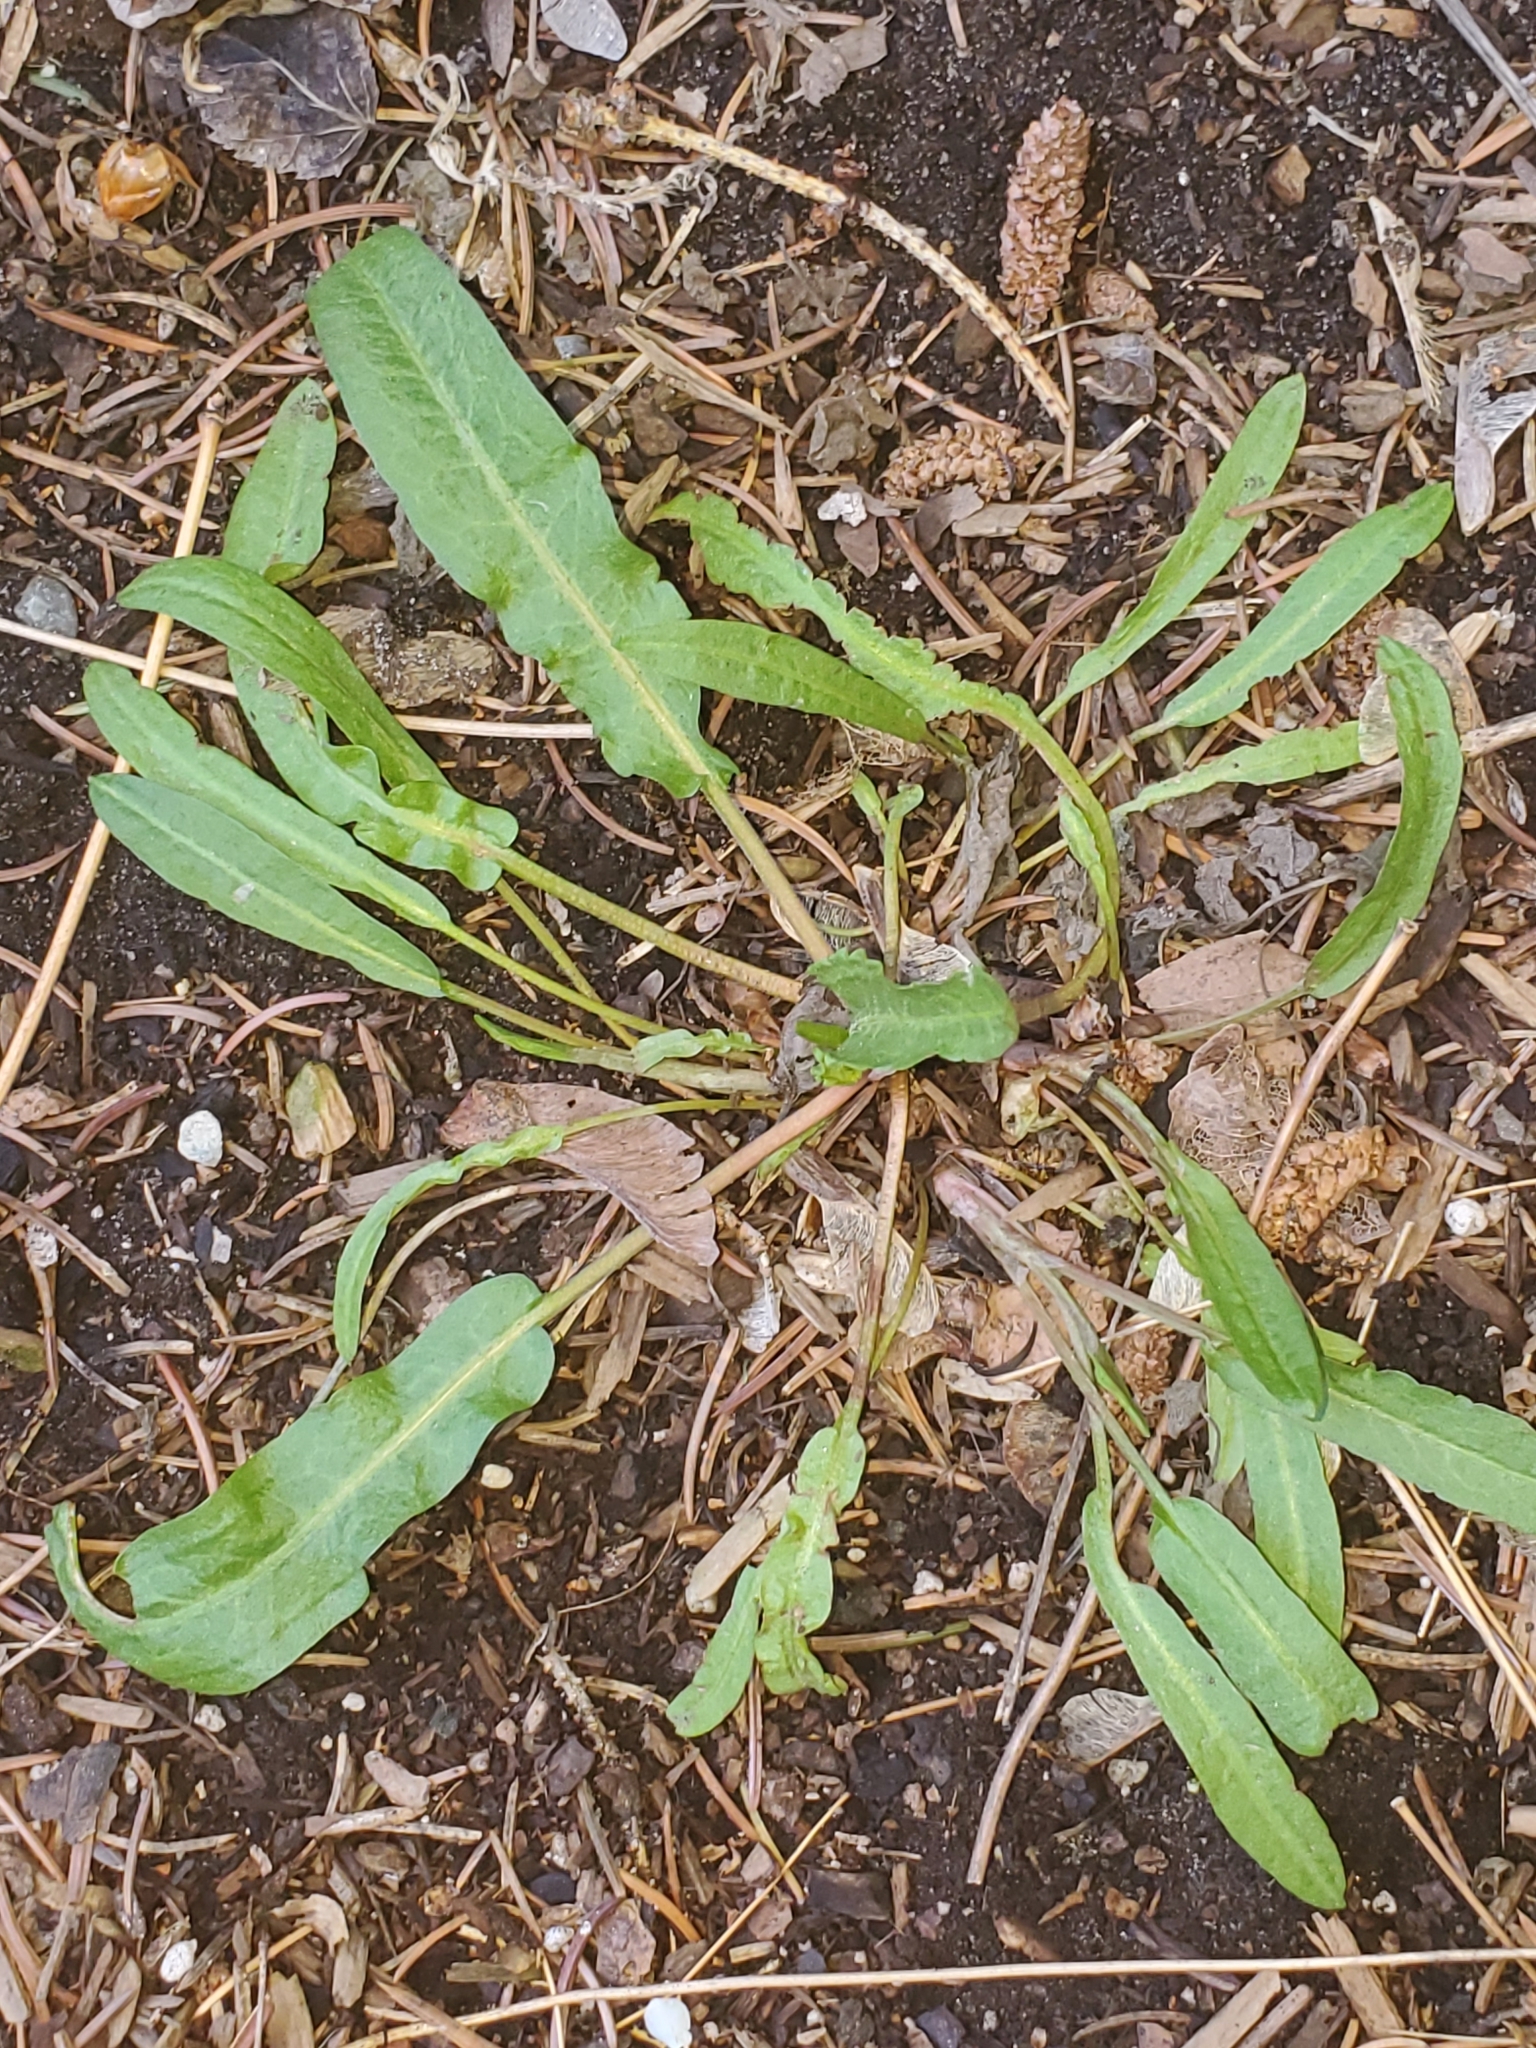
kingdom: Plantae
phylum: Tracheophyta
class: Magnoliopsida
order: Caryophyllales
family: Polygonaceae
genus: Rumex
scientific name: Rumex crispus
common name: Curled dock
